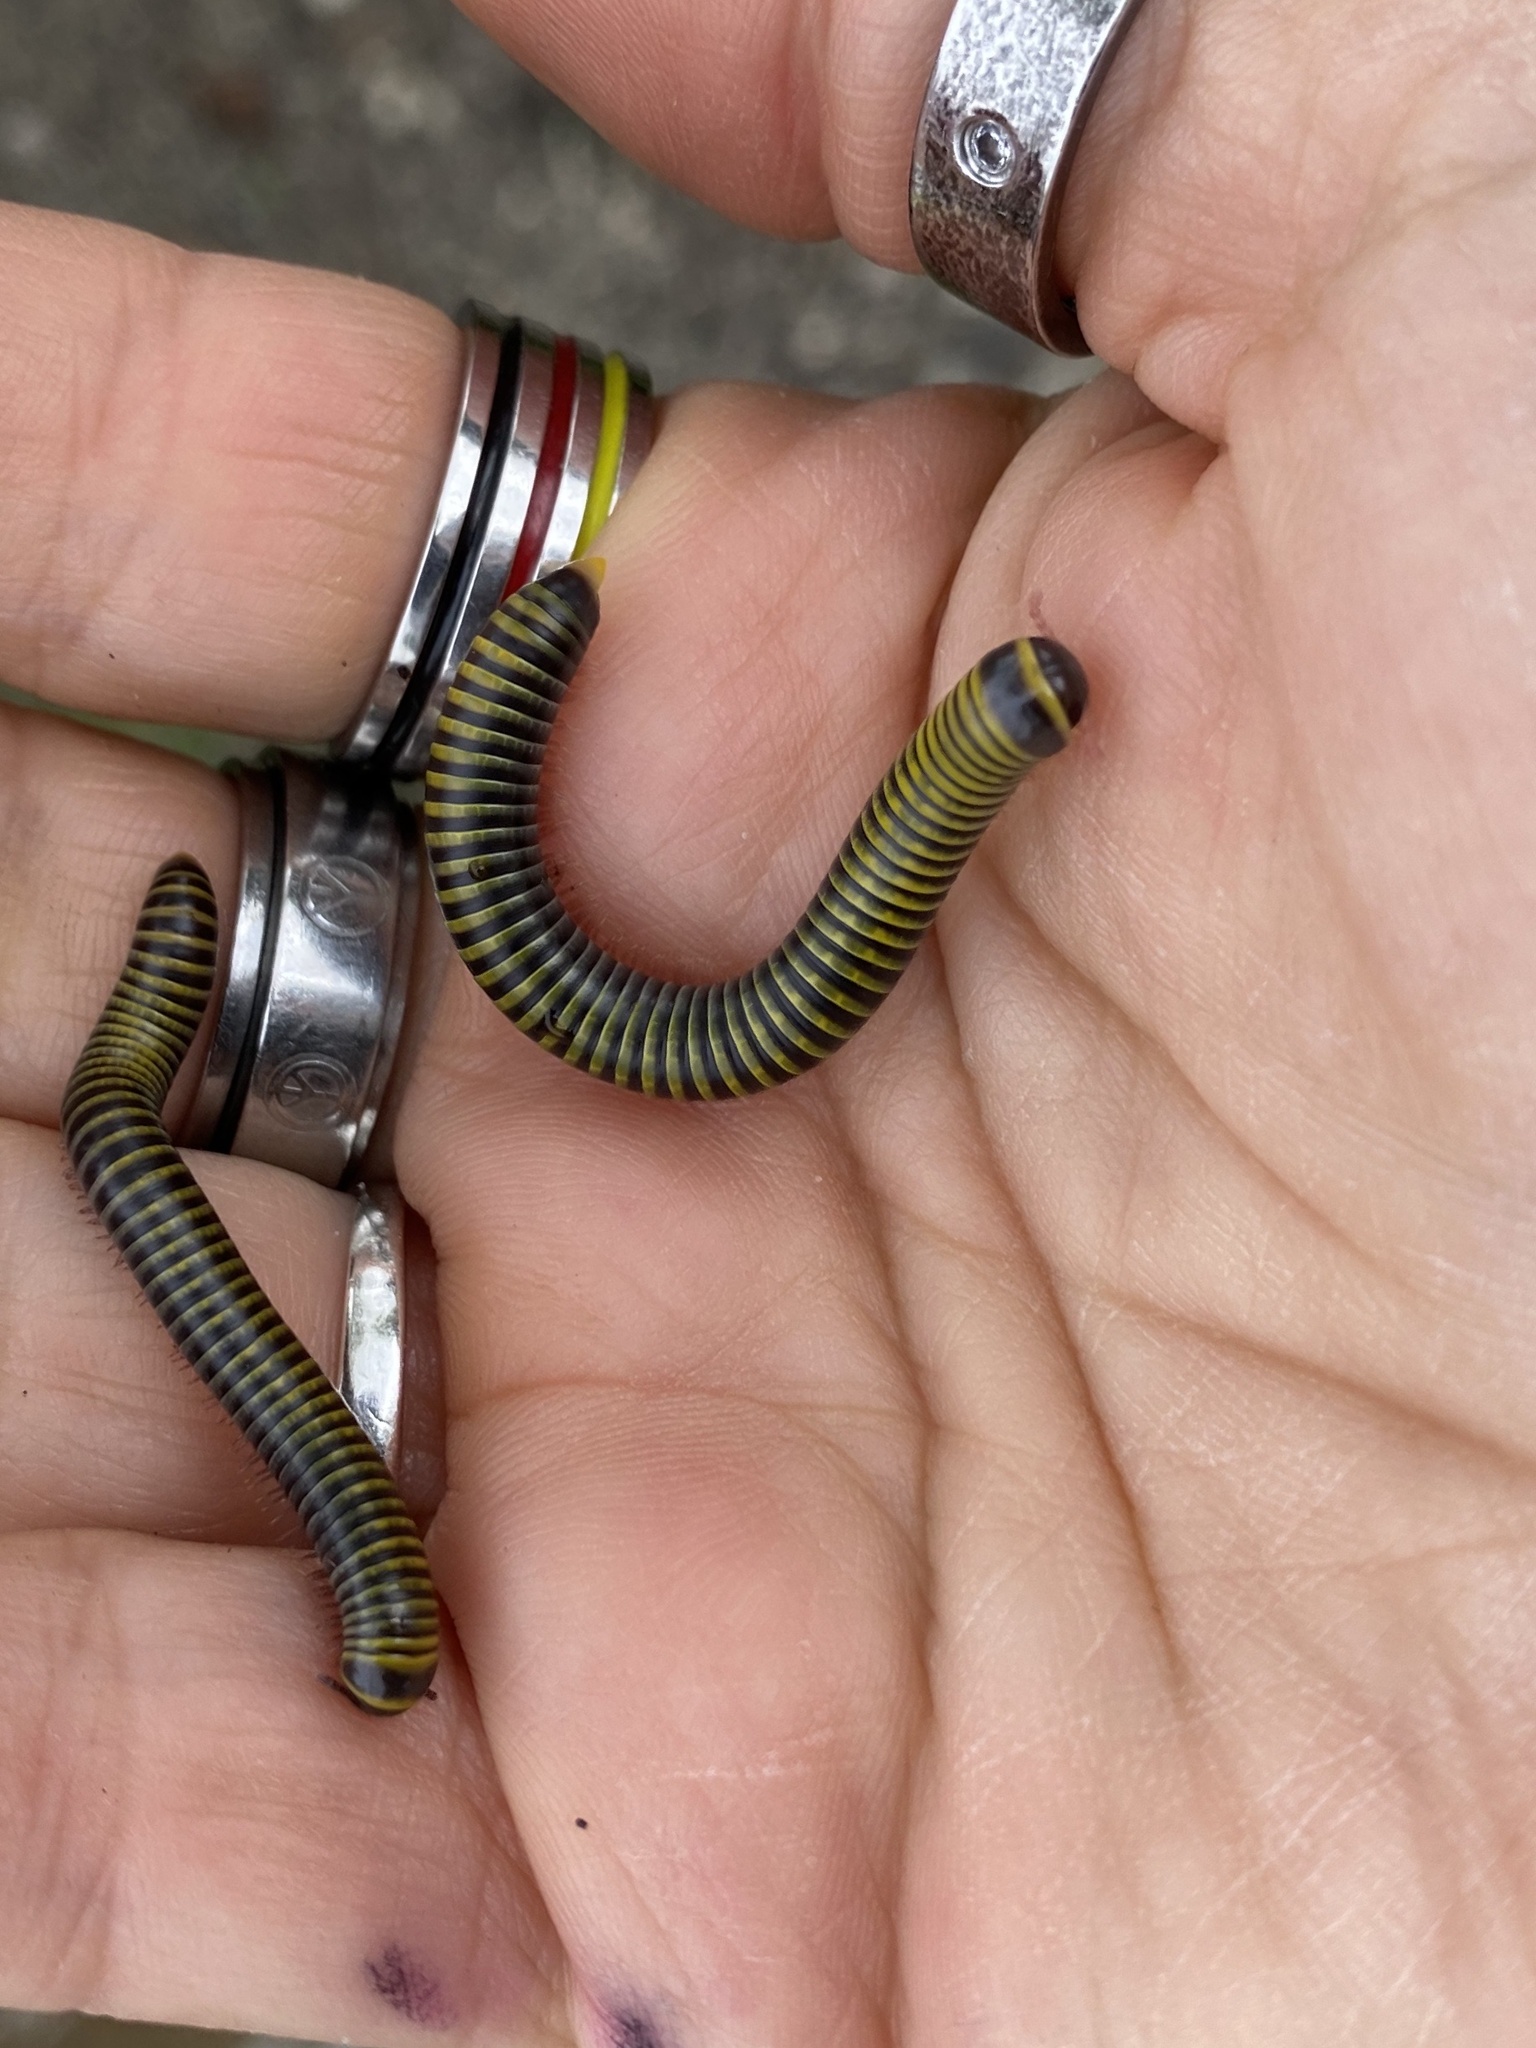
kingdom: Animalia
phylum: Arthropoda
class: Diplopoda
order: Spirobolida
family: Rhinocricidae
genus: Anadenobolus
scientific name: Anadenobolus monilicornis
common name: Caribbean millipede
